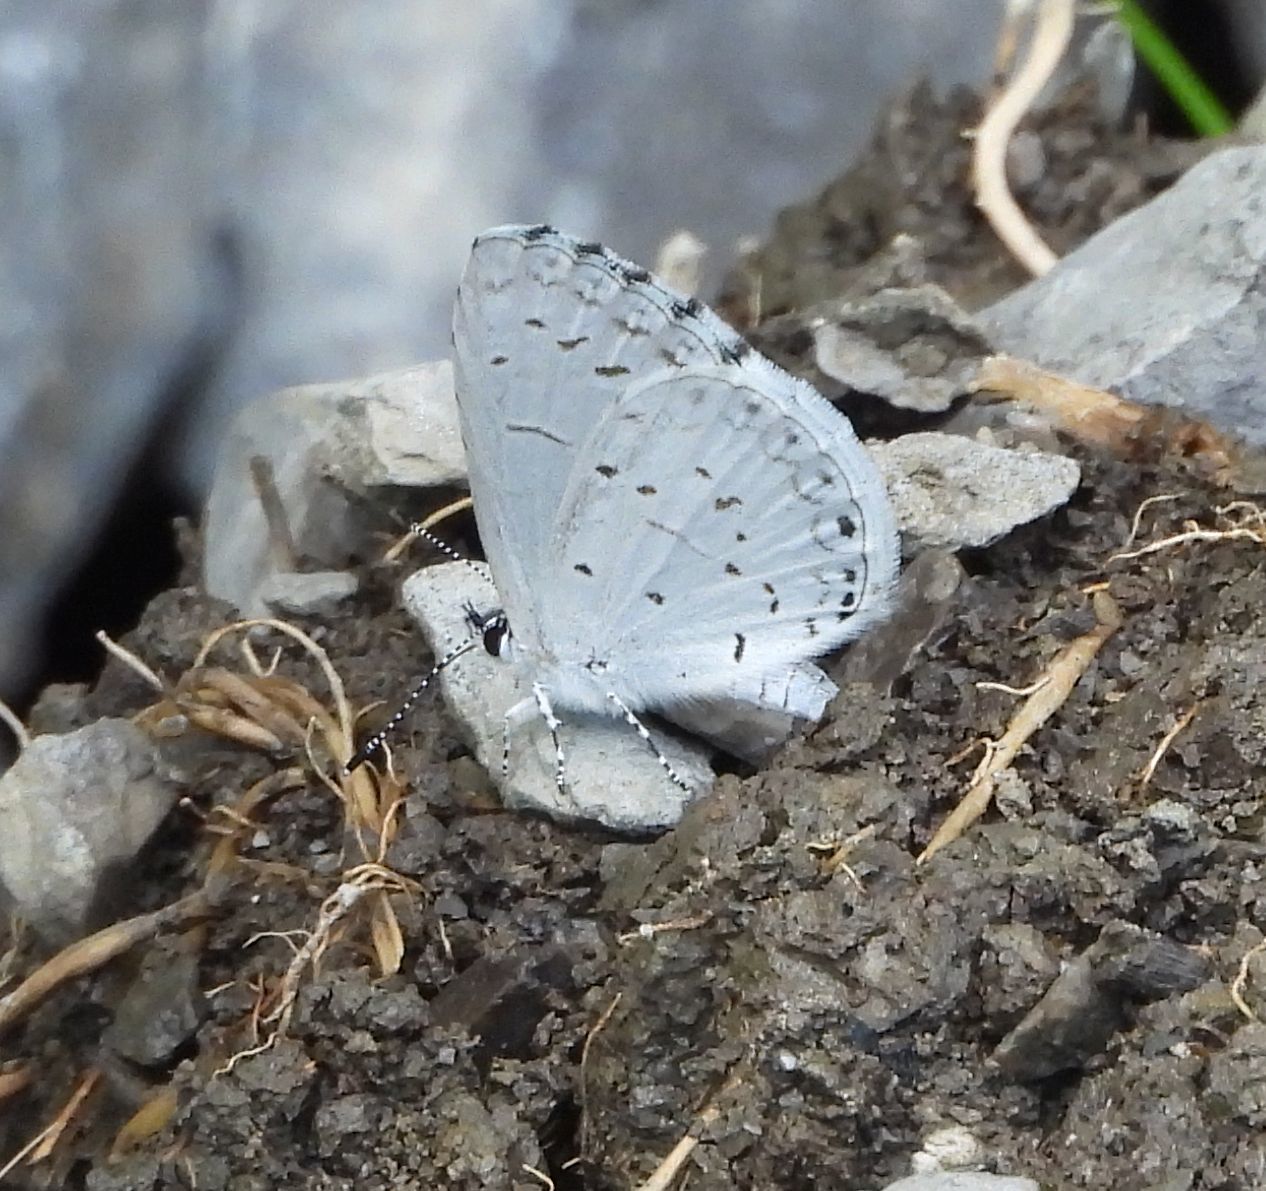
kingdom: Animalia
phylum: Arthropoda
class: Insecta
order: Lepidoptera
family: Lycaenidae
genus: Celastrina
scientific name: Celastrina
